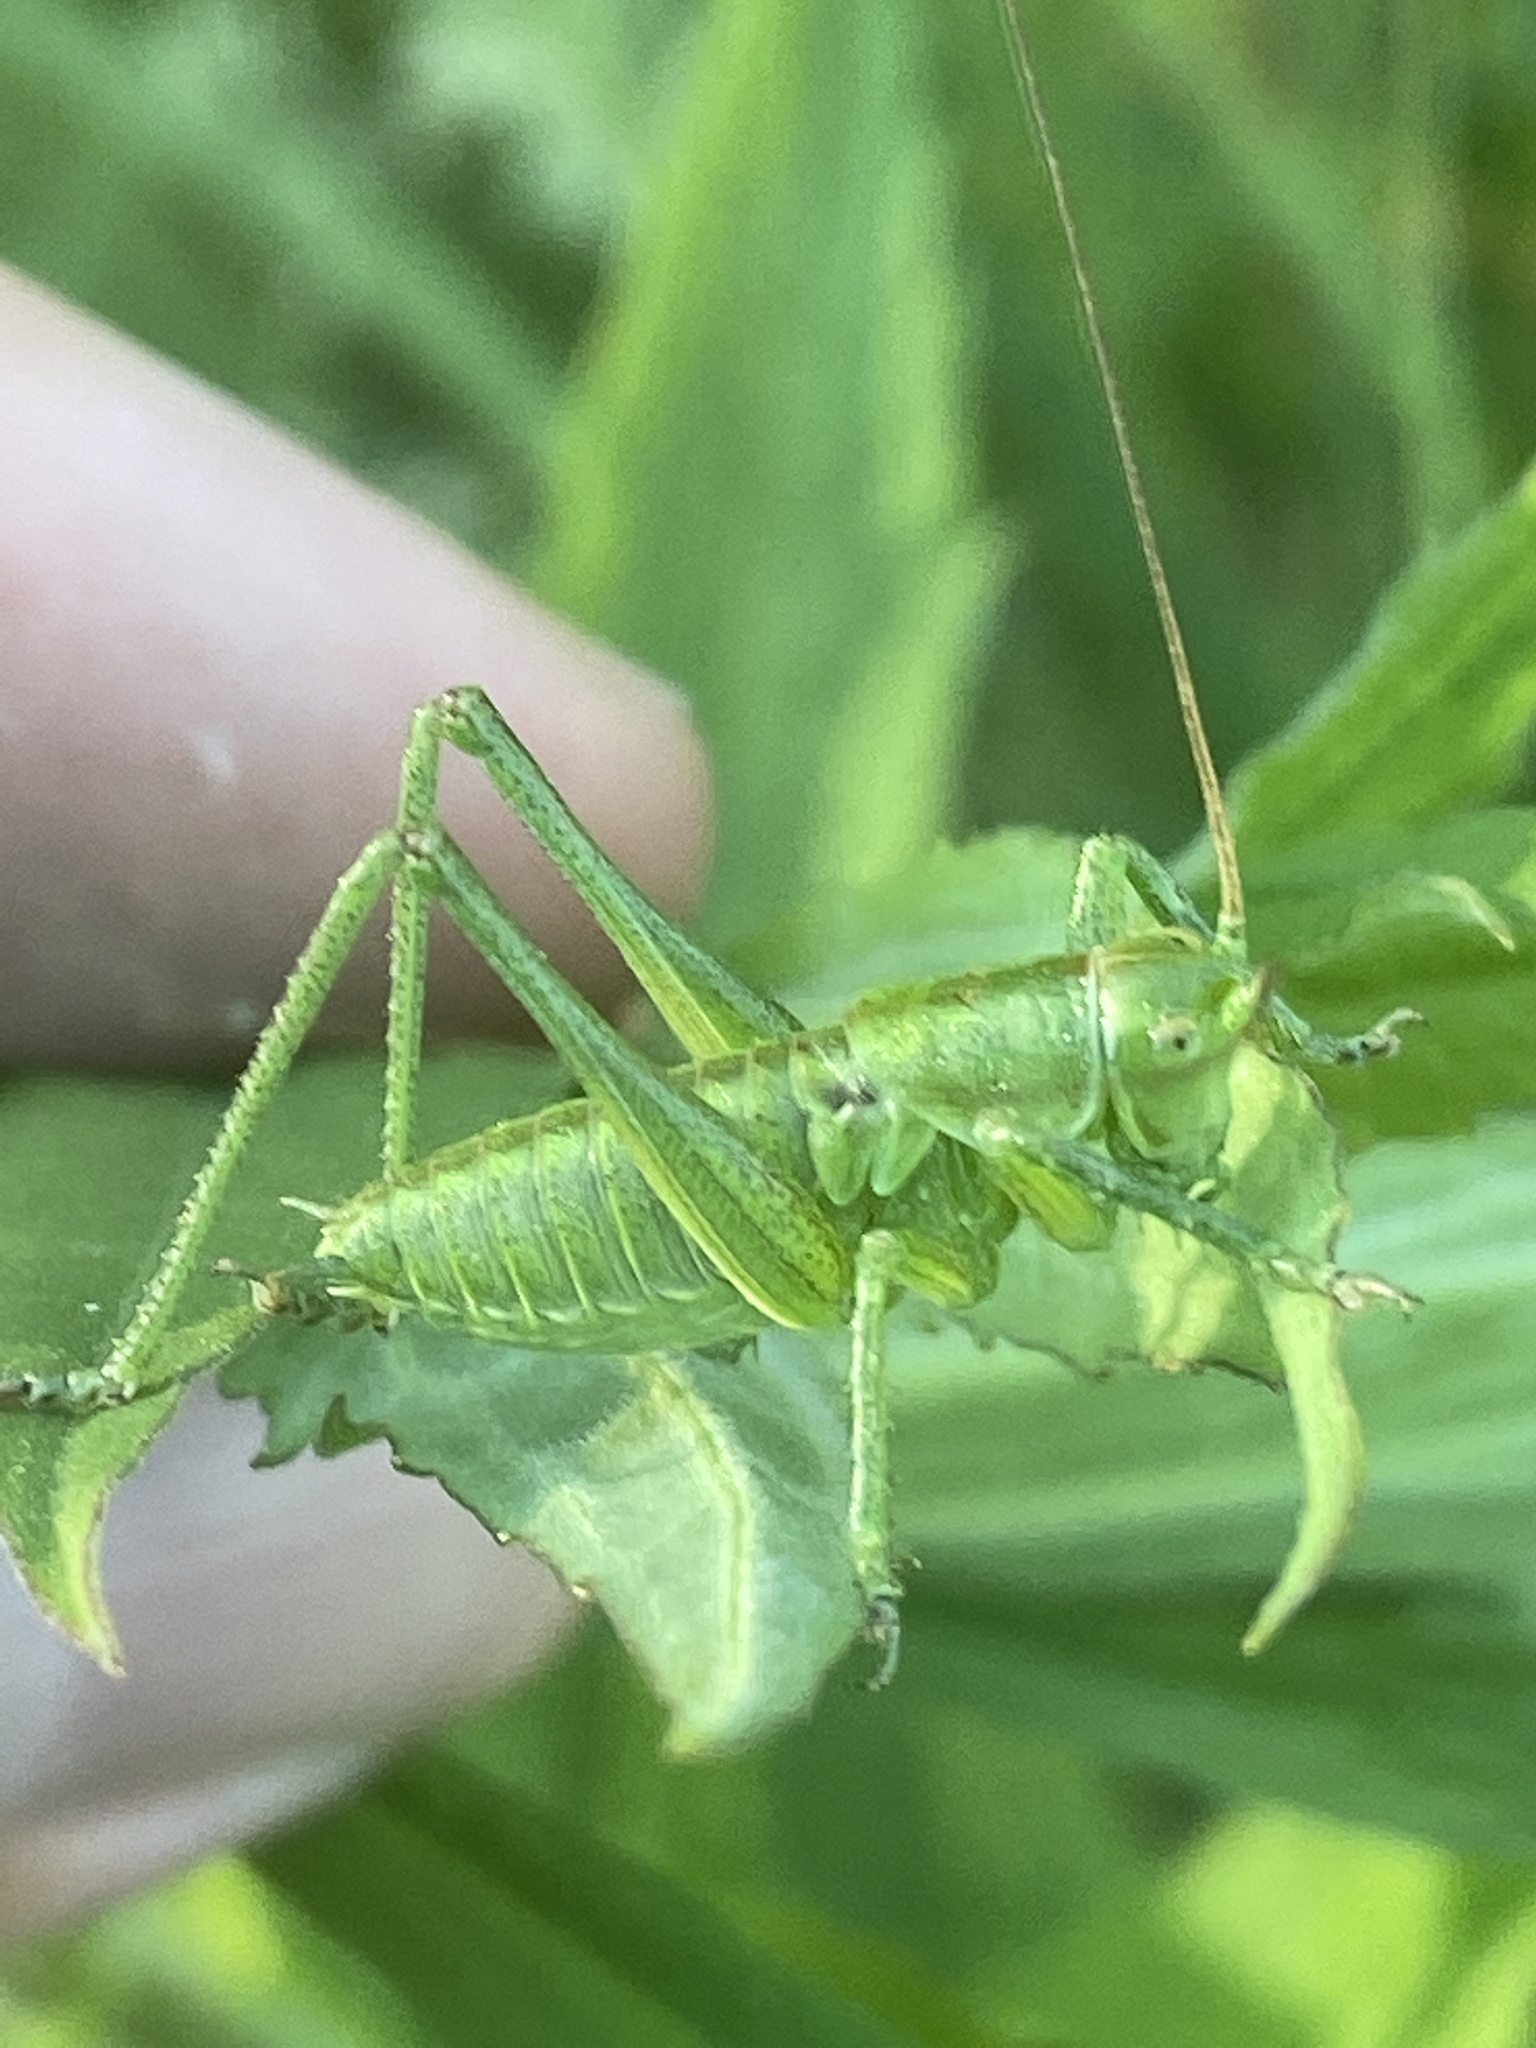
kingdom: Animalia
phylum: Arthropoda
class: Insecta
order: Orthoptera
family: Tettigoniidae
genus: Tettigonia
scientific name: Tettigonia viridissima
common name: Great green bush-cricket
